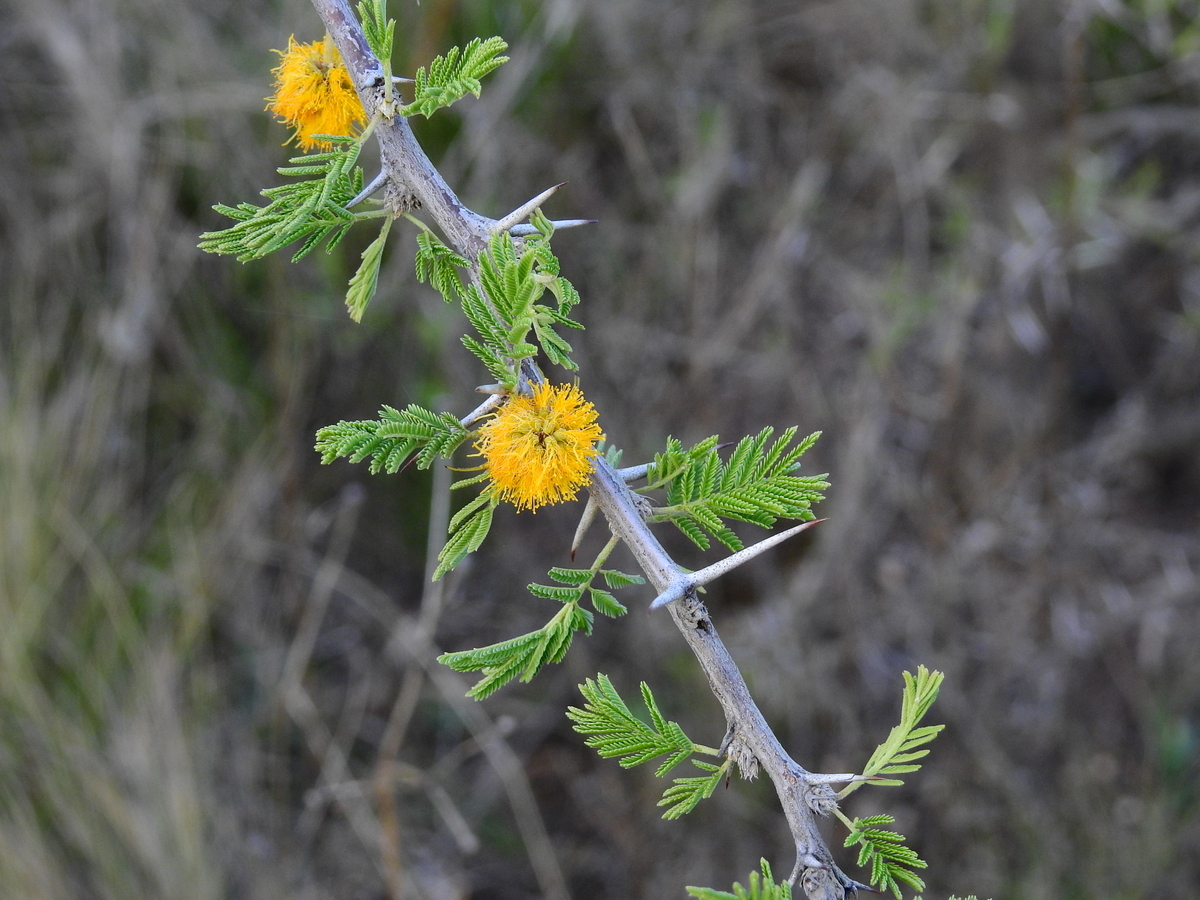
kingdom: Plantae
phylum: Tracheophyta
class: Magnoliopsida
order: Fabales
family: Fabaceae
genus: Vachellia
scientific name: Vachellia caven
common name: Roman cassie
